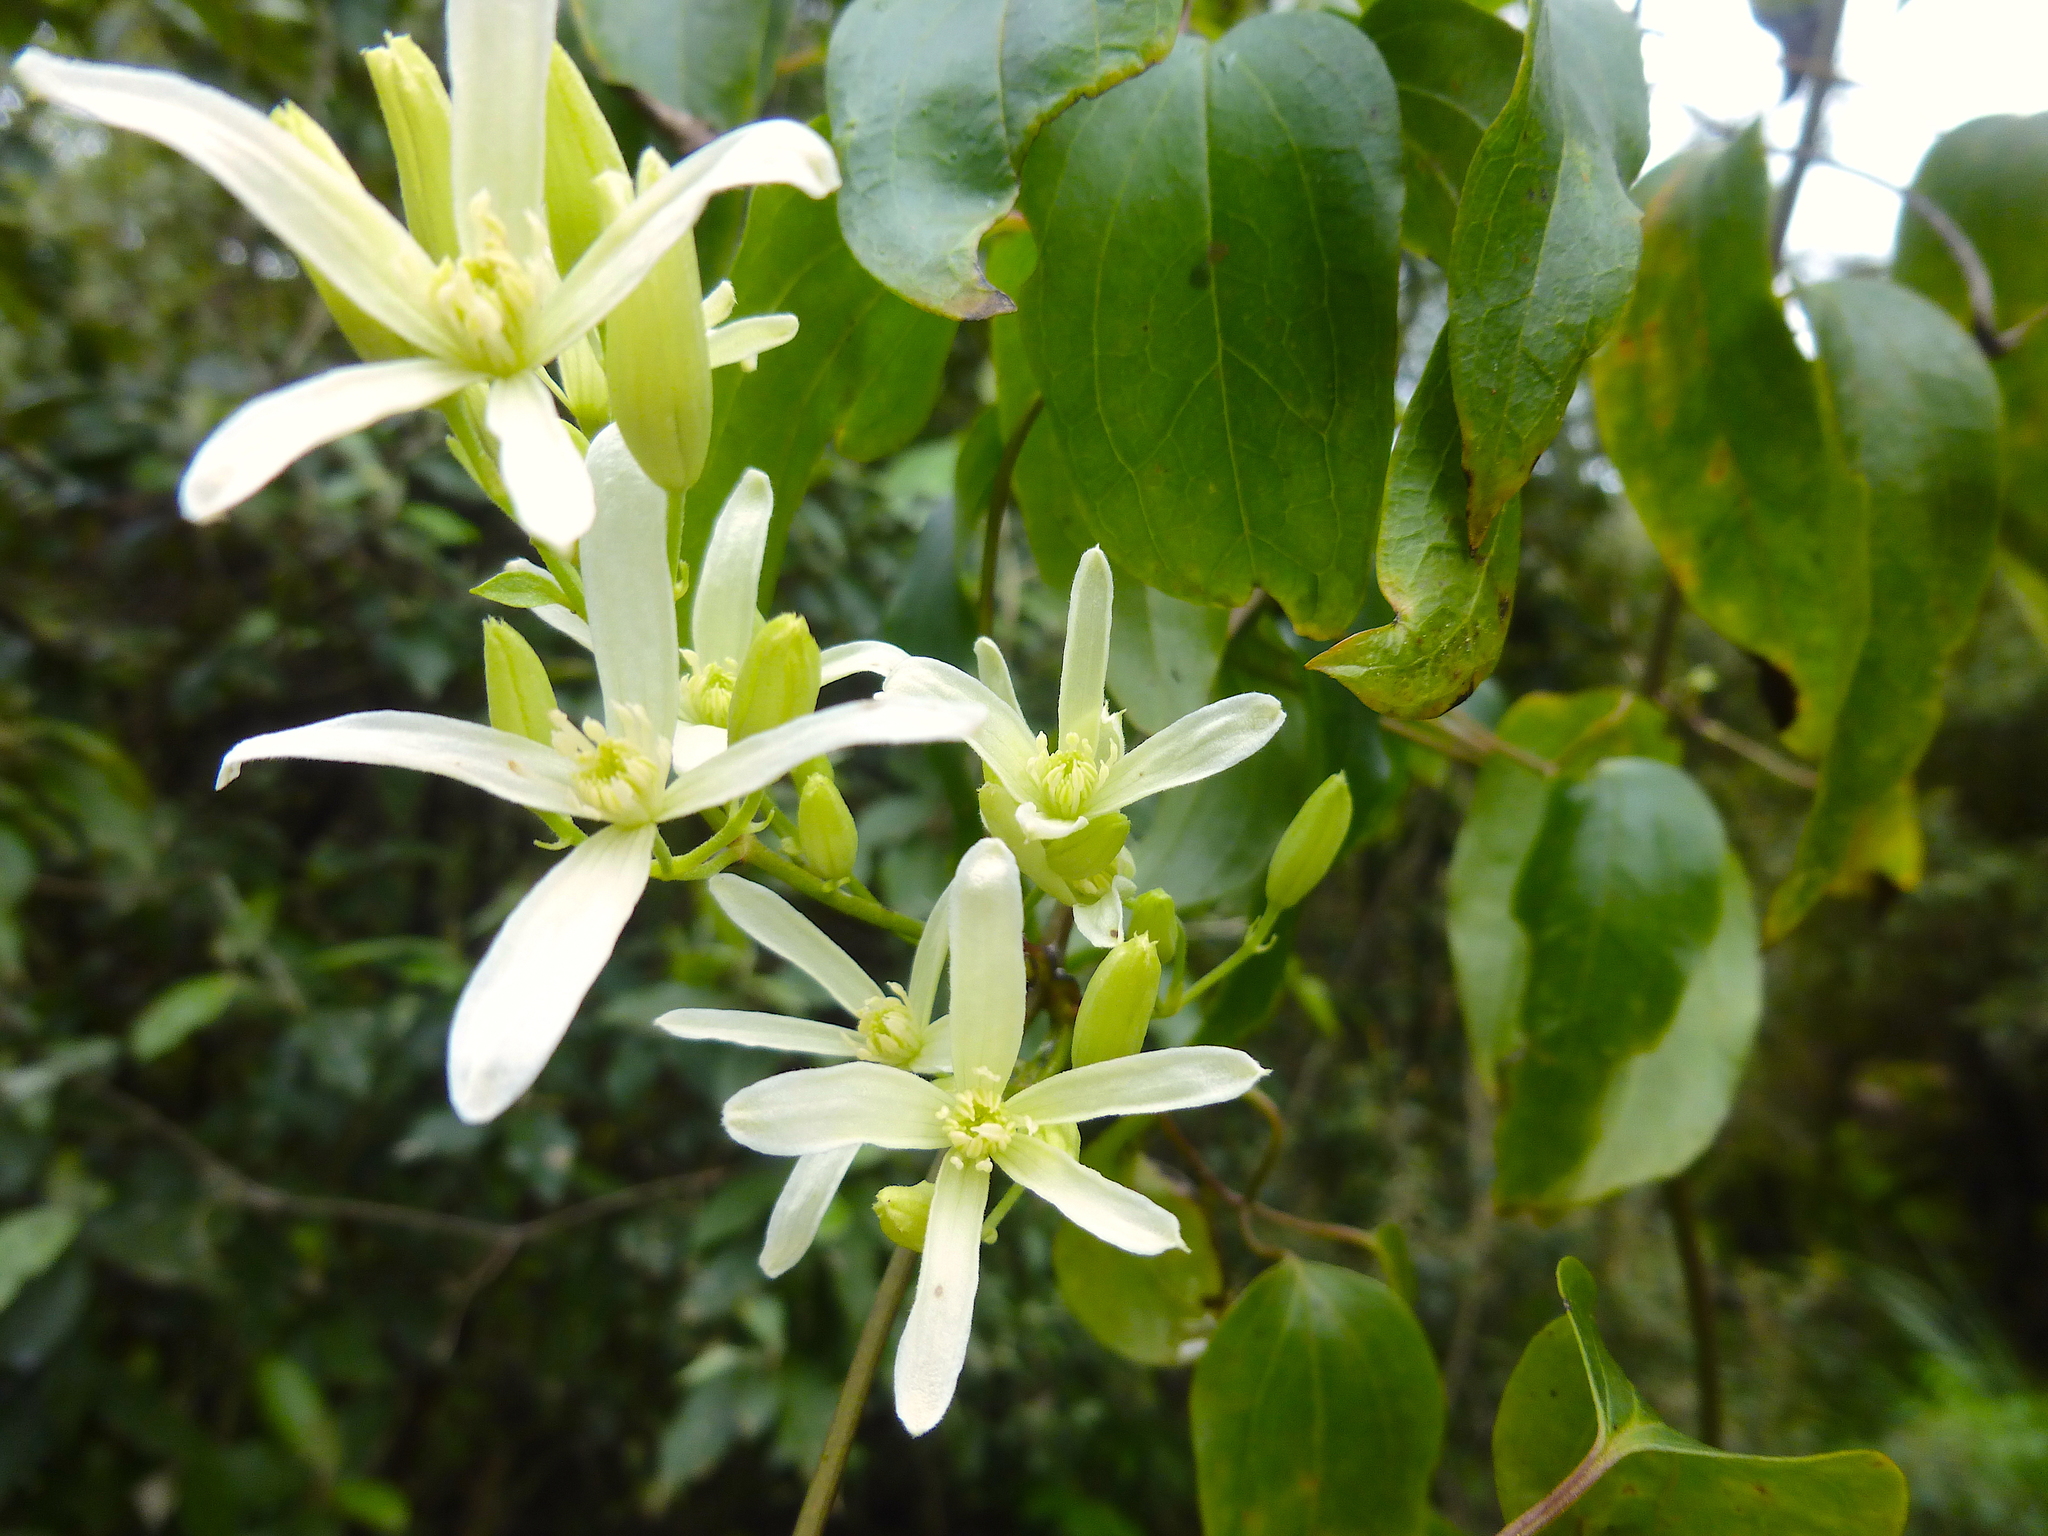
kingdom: Plantae
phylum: Tracheophyta
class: Magnoliopsida
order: Ranunculales
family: Ranunculaceae
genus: Clematis
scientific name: Clematis glycinoides
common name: Forest clematis
